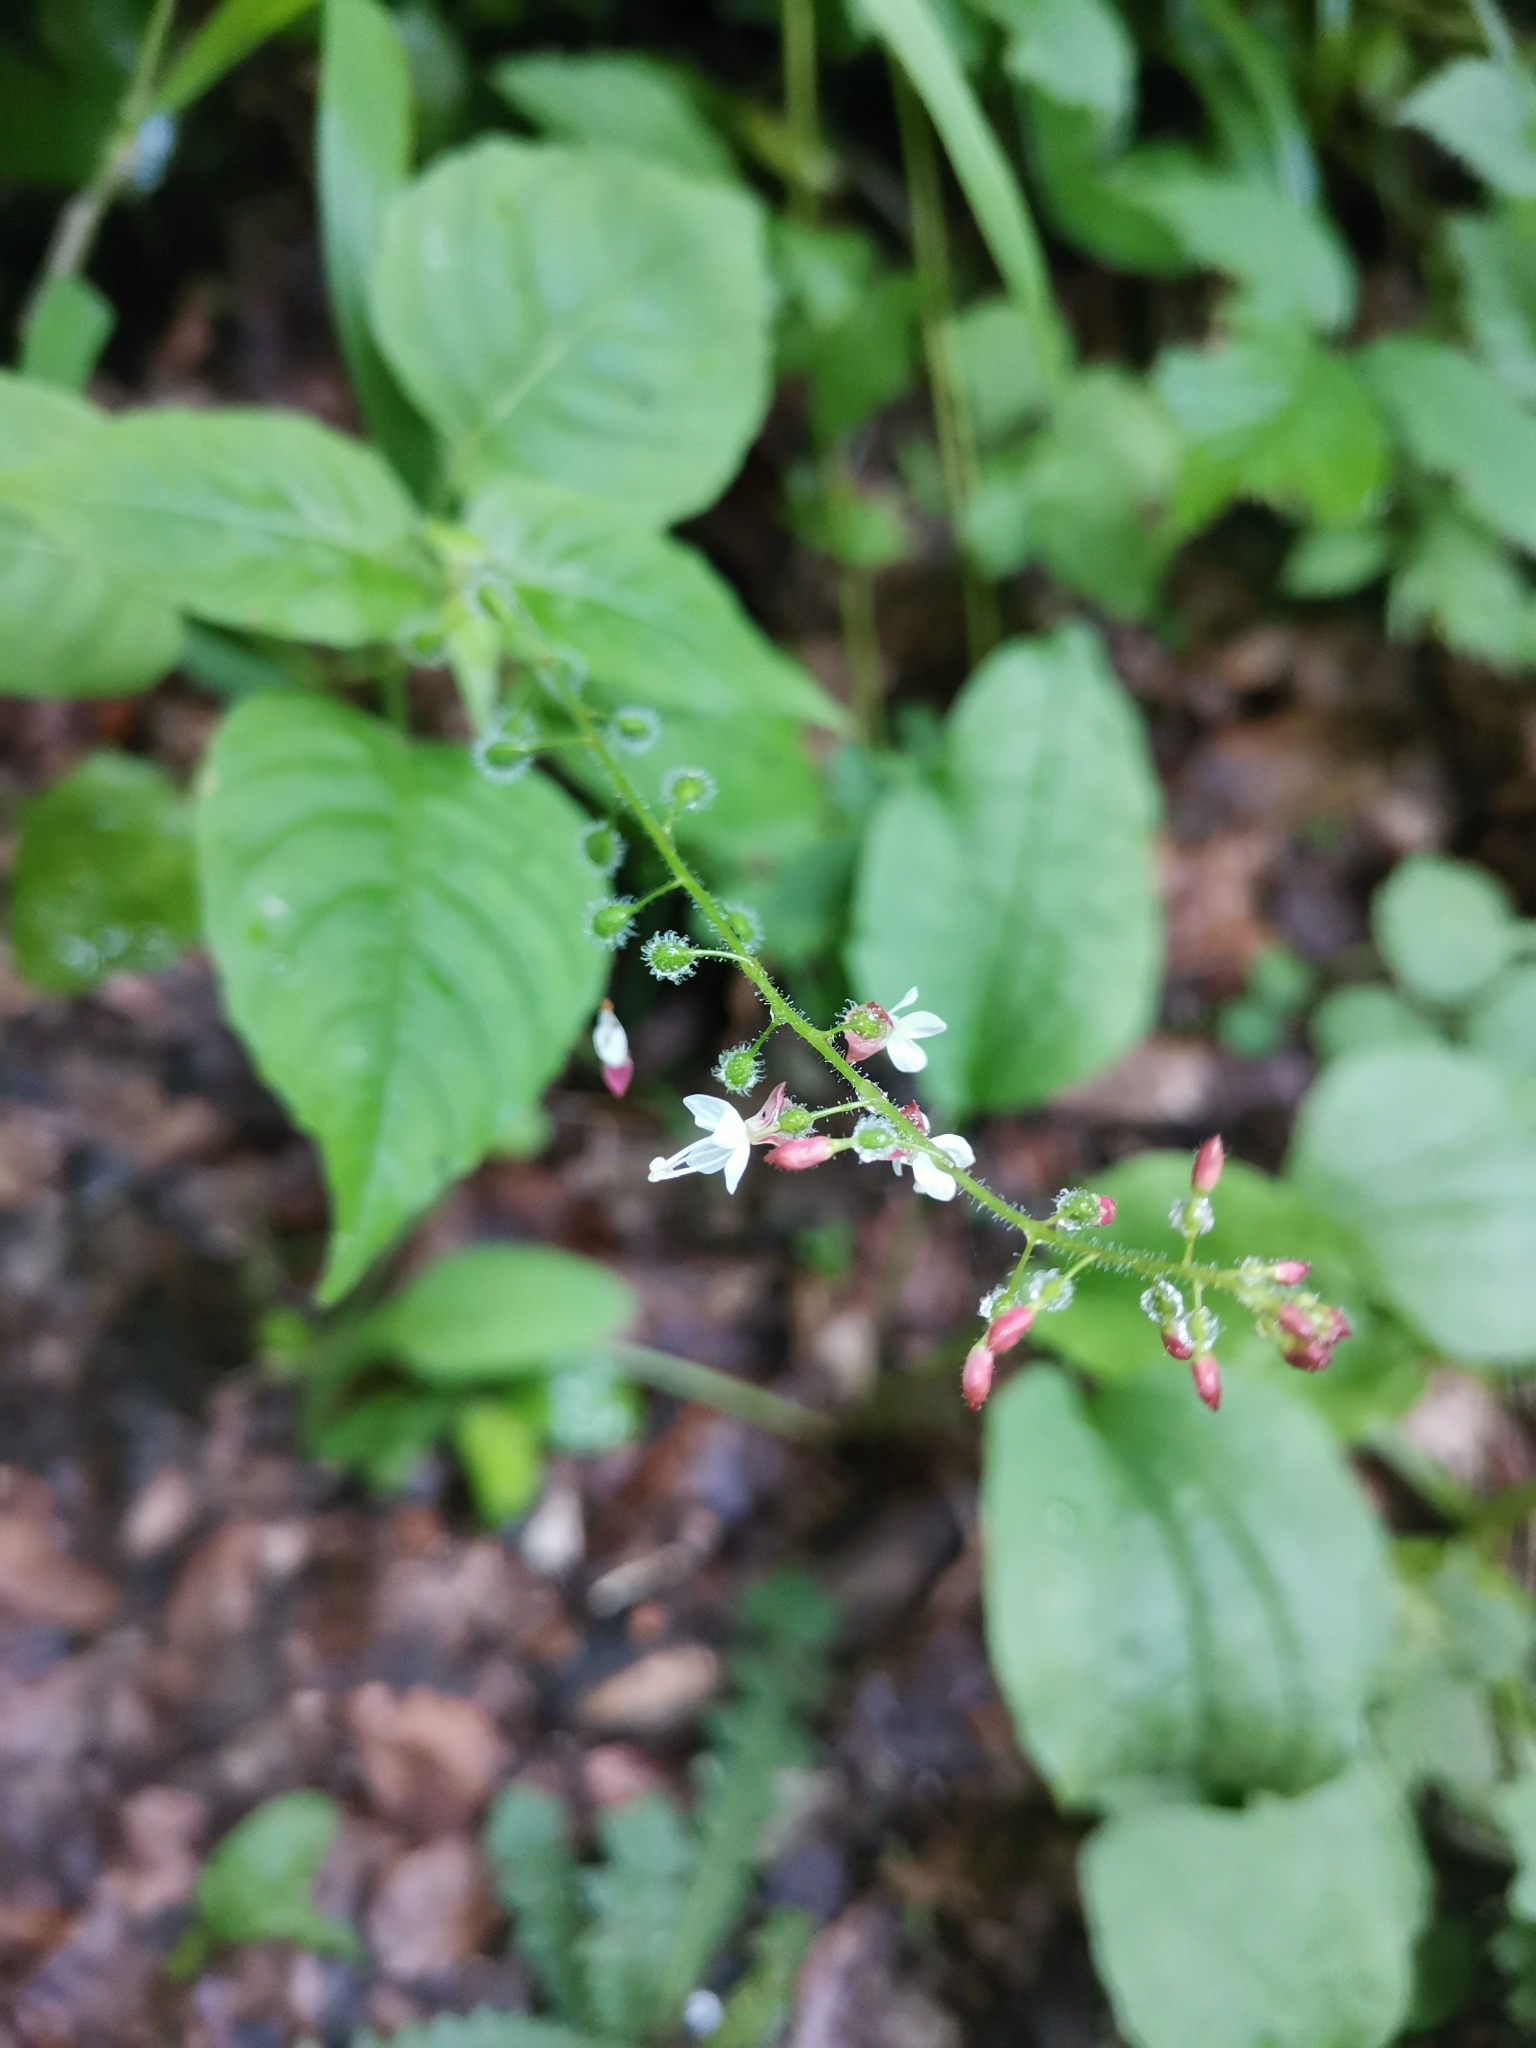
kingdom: Plantae
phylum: Tracheophyta
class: Magnoliopsida
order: Myrtales
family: Onagraceae
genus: Circaea
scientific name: Circaea lutetiana
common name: Enchanter's-nightshade
